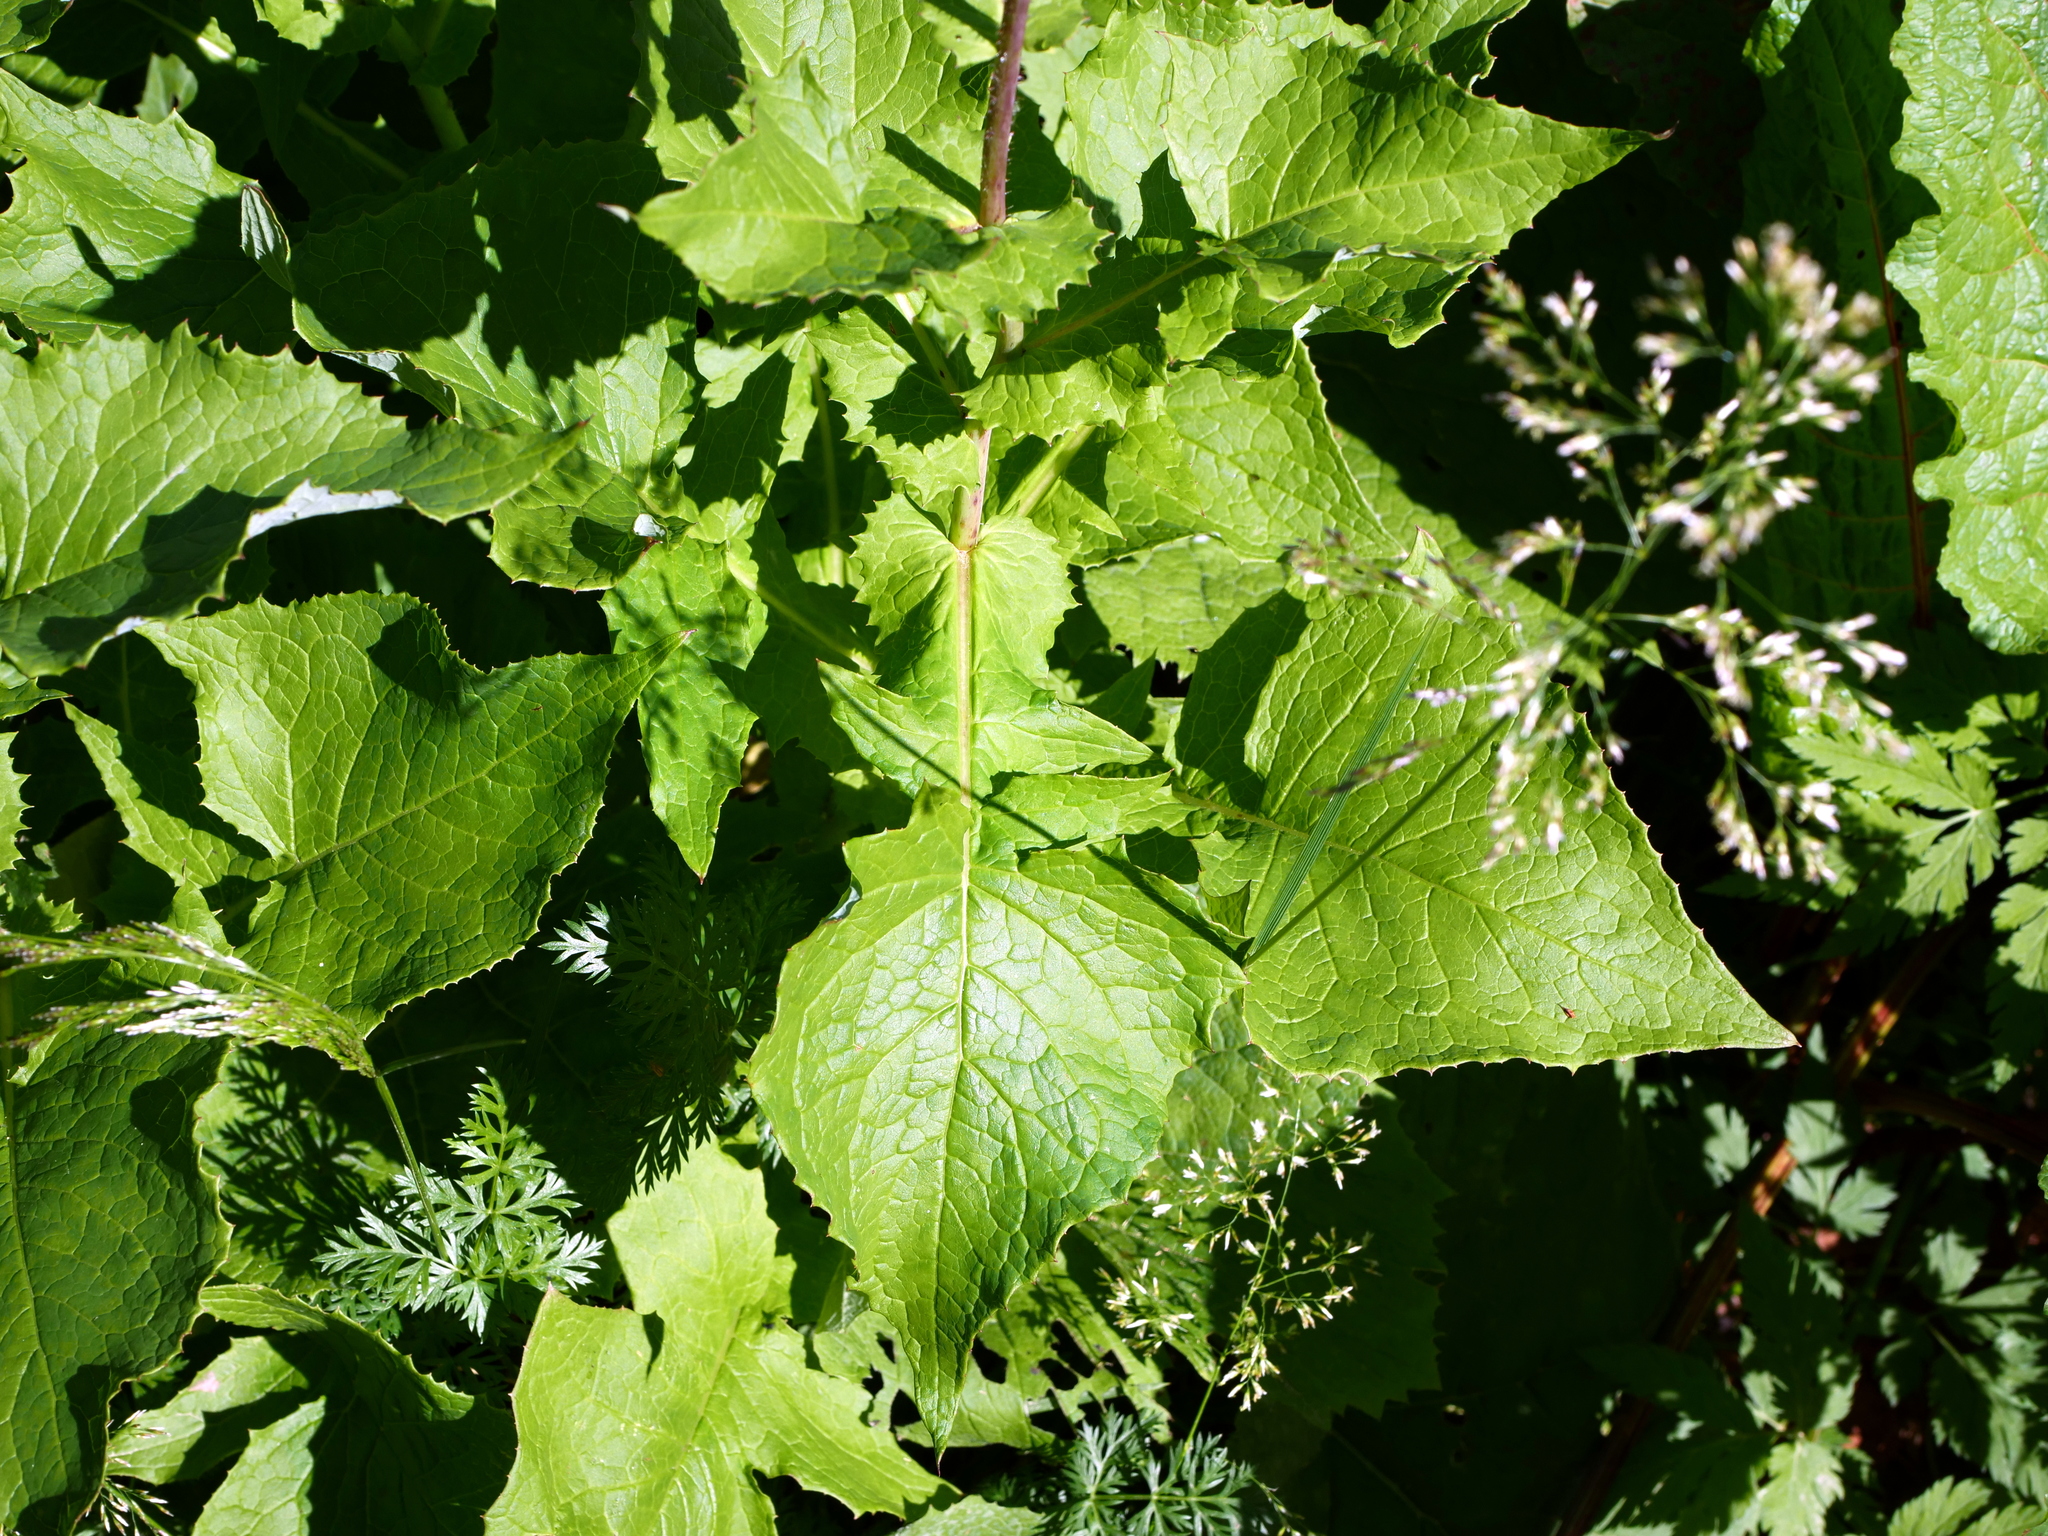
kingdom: Plantae
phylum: Tracheophyta
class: Magnoliopsida
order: Asterales
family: Asteraceae
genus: Cicerbita
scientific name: Cicerbita alpina
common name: Alpine blue-sow-thistle
